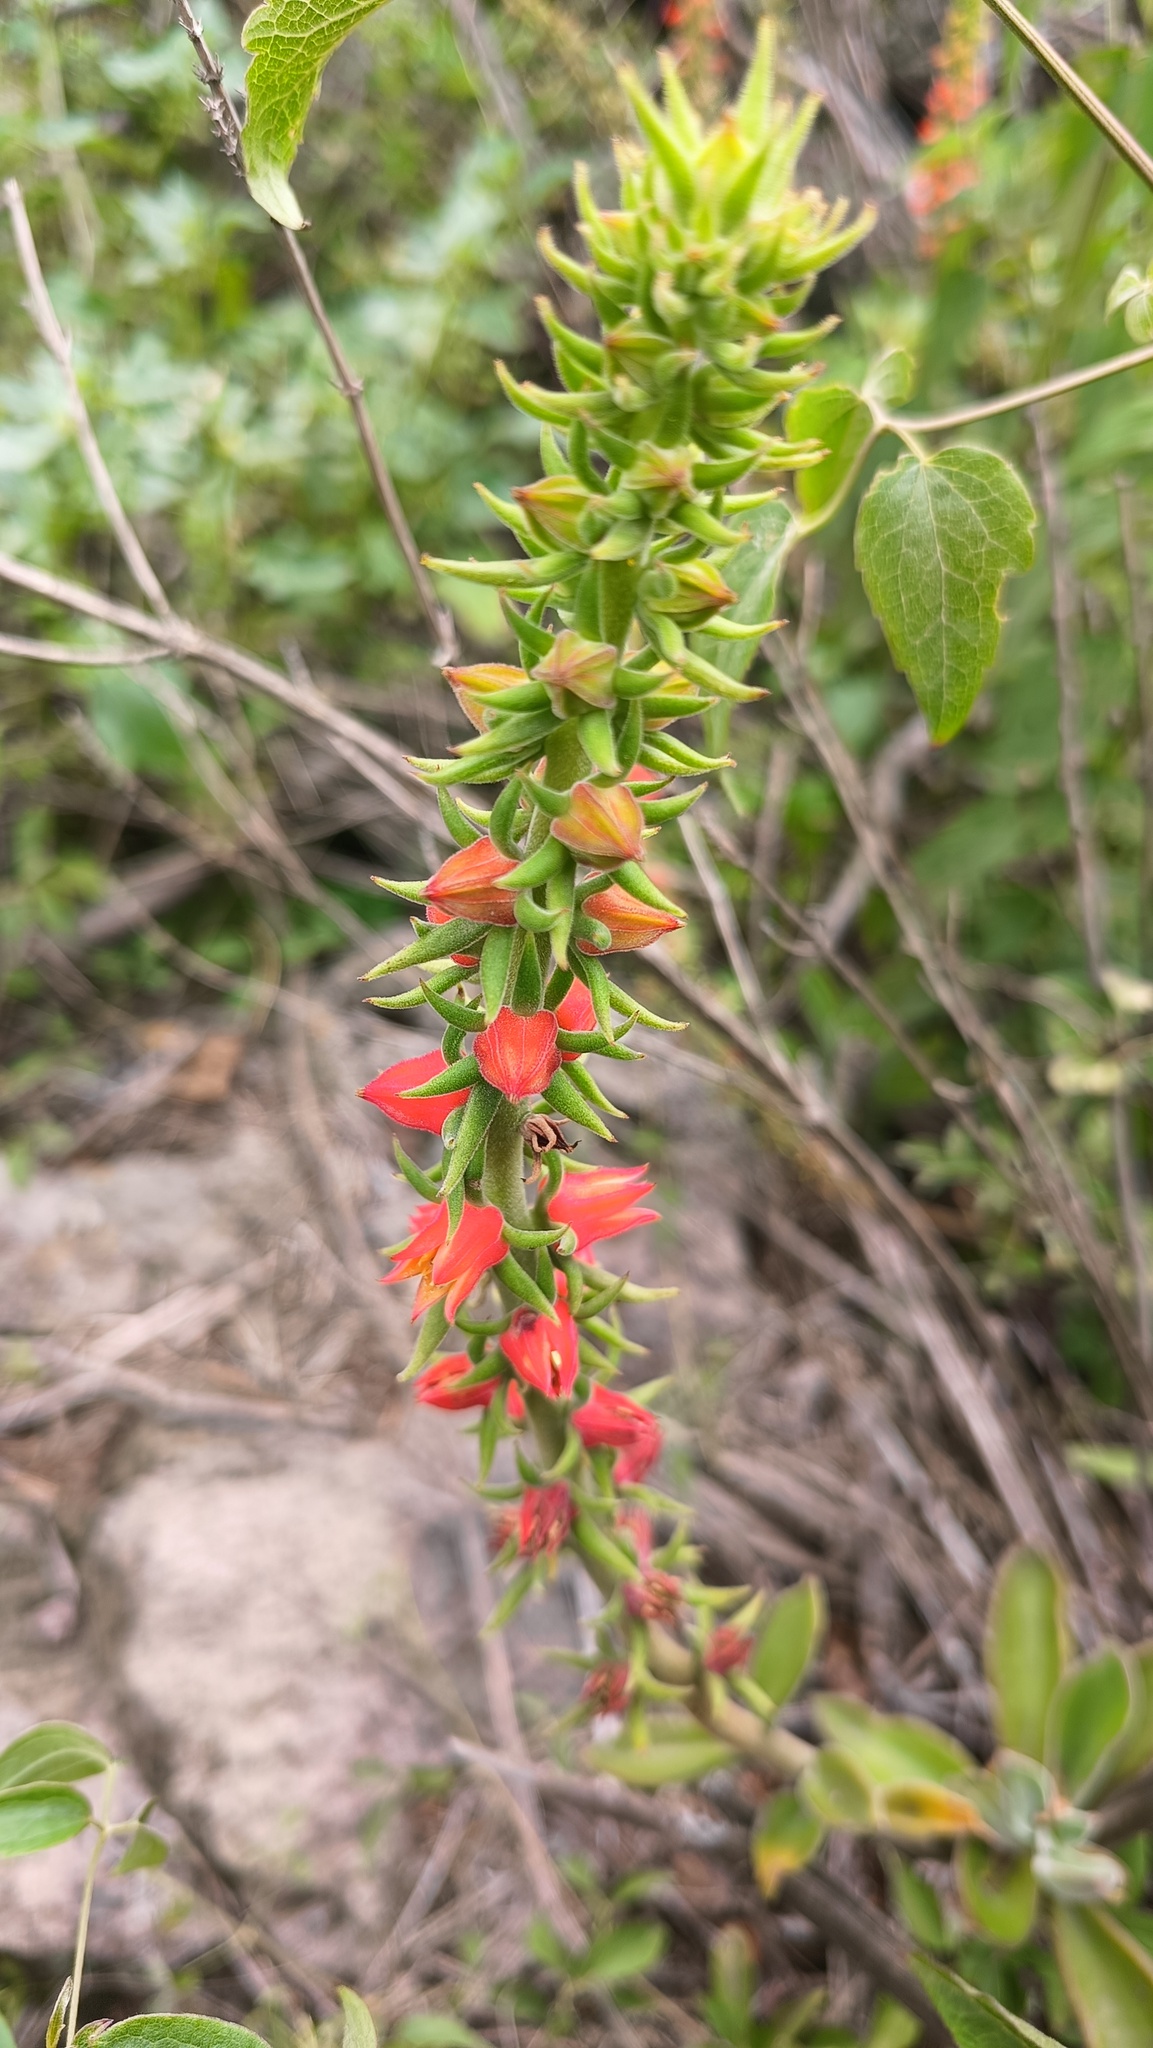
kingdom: Plantae
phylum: Tracheophyta
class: Magnoliopsida
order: Saxifragales
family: Crassulaceae
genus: Echeveria
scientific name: Echeveria coccinea
